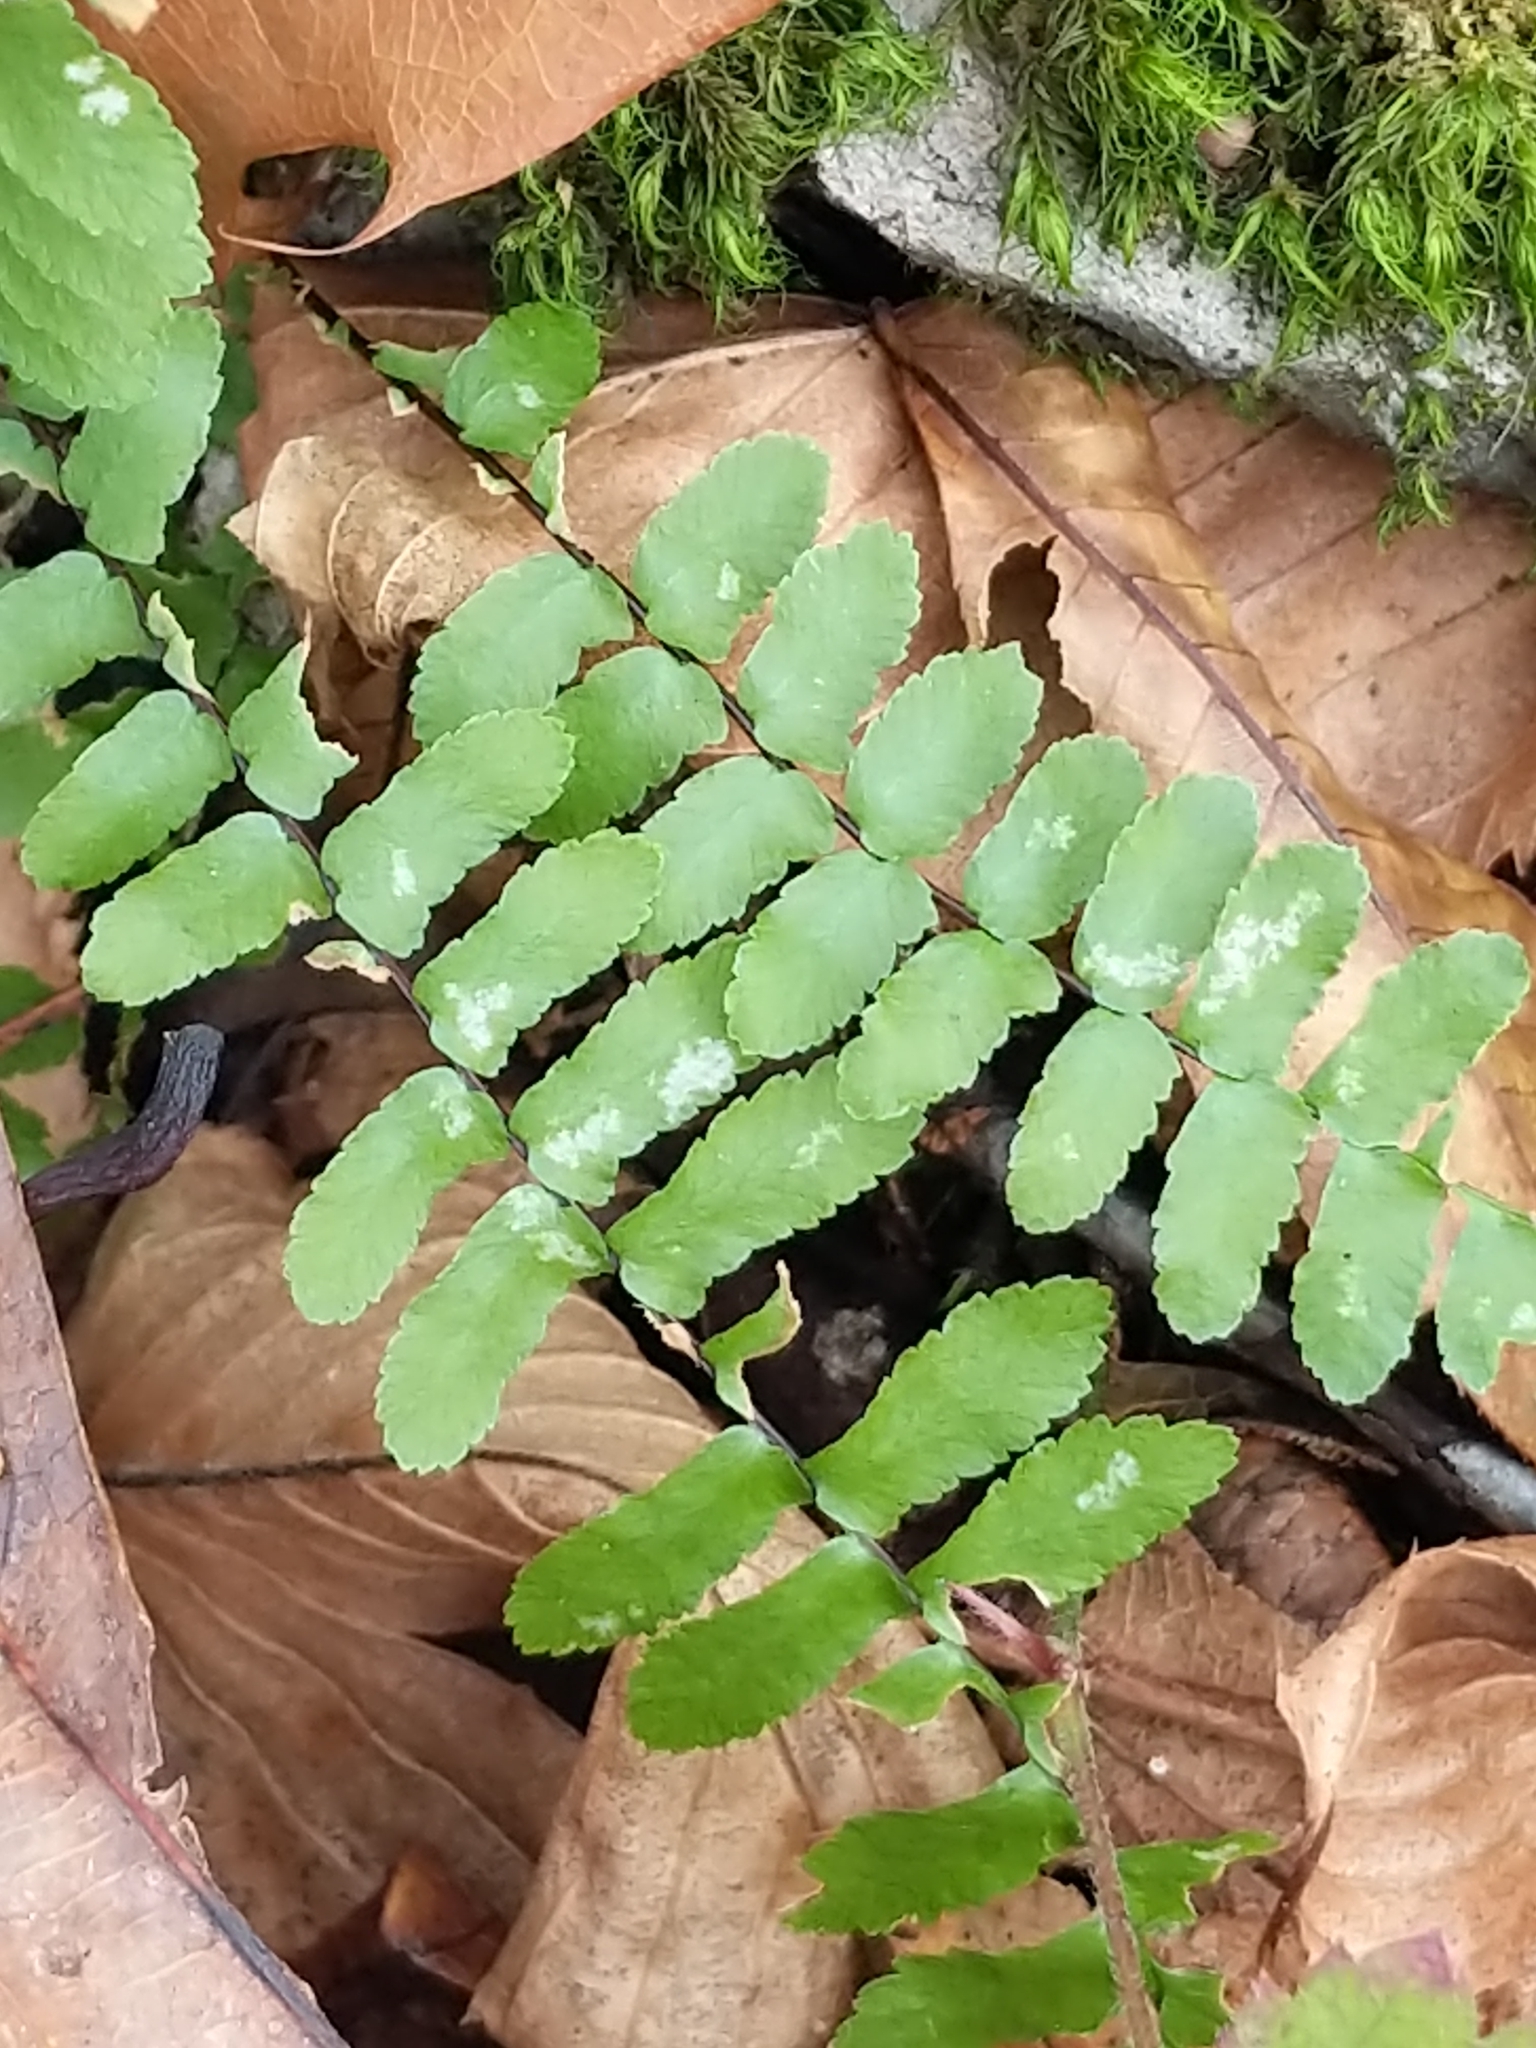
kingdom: Plantae
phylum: Tracheophyta
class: Polypodiopsida
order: Polypodiales
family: Aspleniaceae
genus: Asplenium
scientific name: Asplenium platyneuron
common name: Ebony spleenwort
